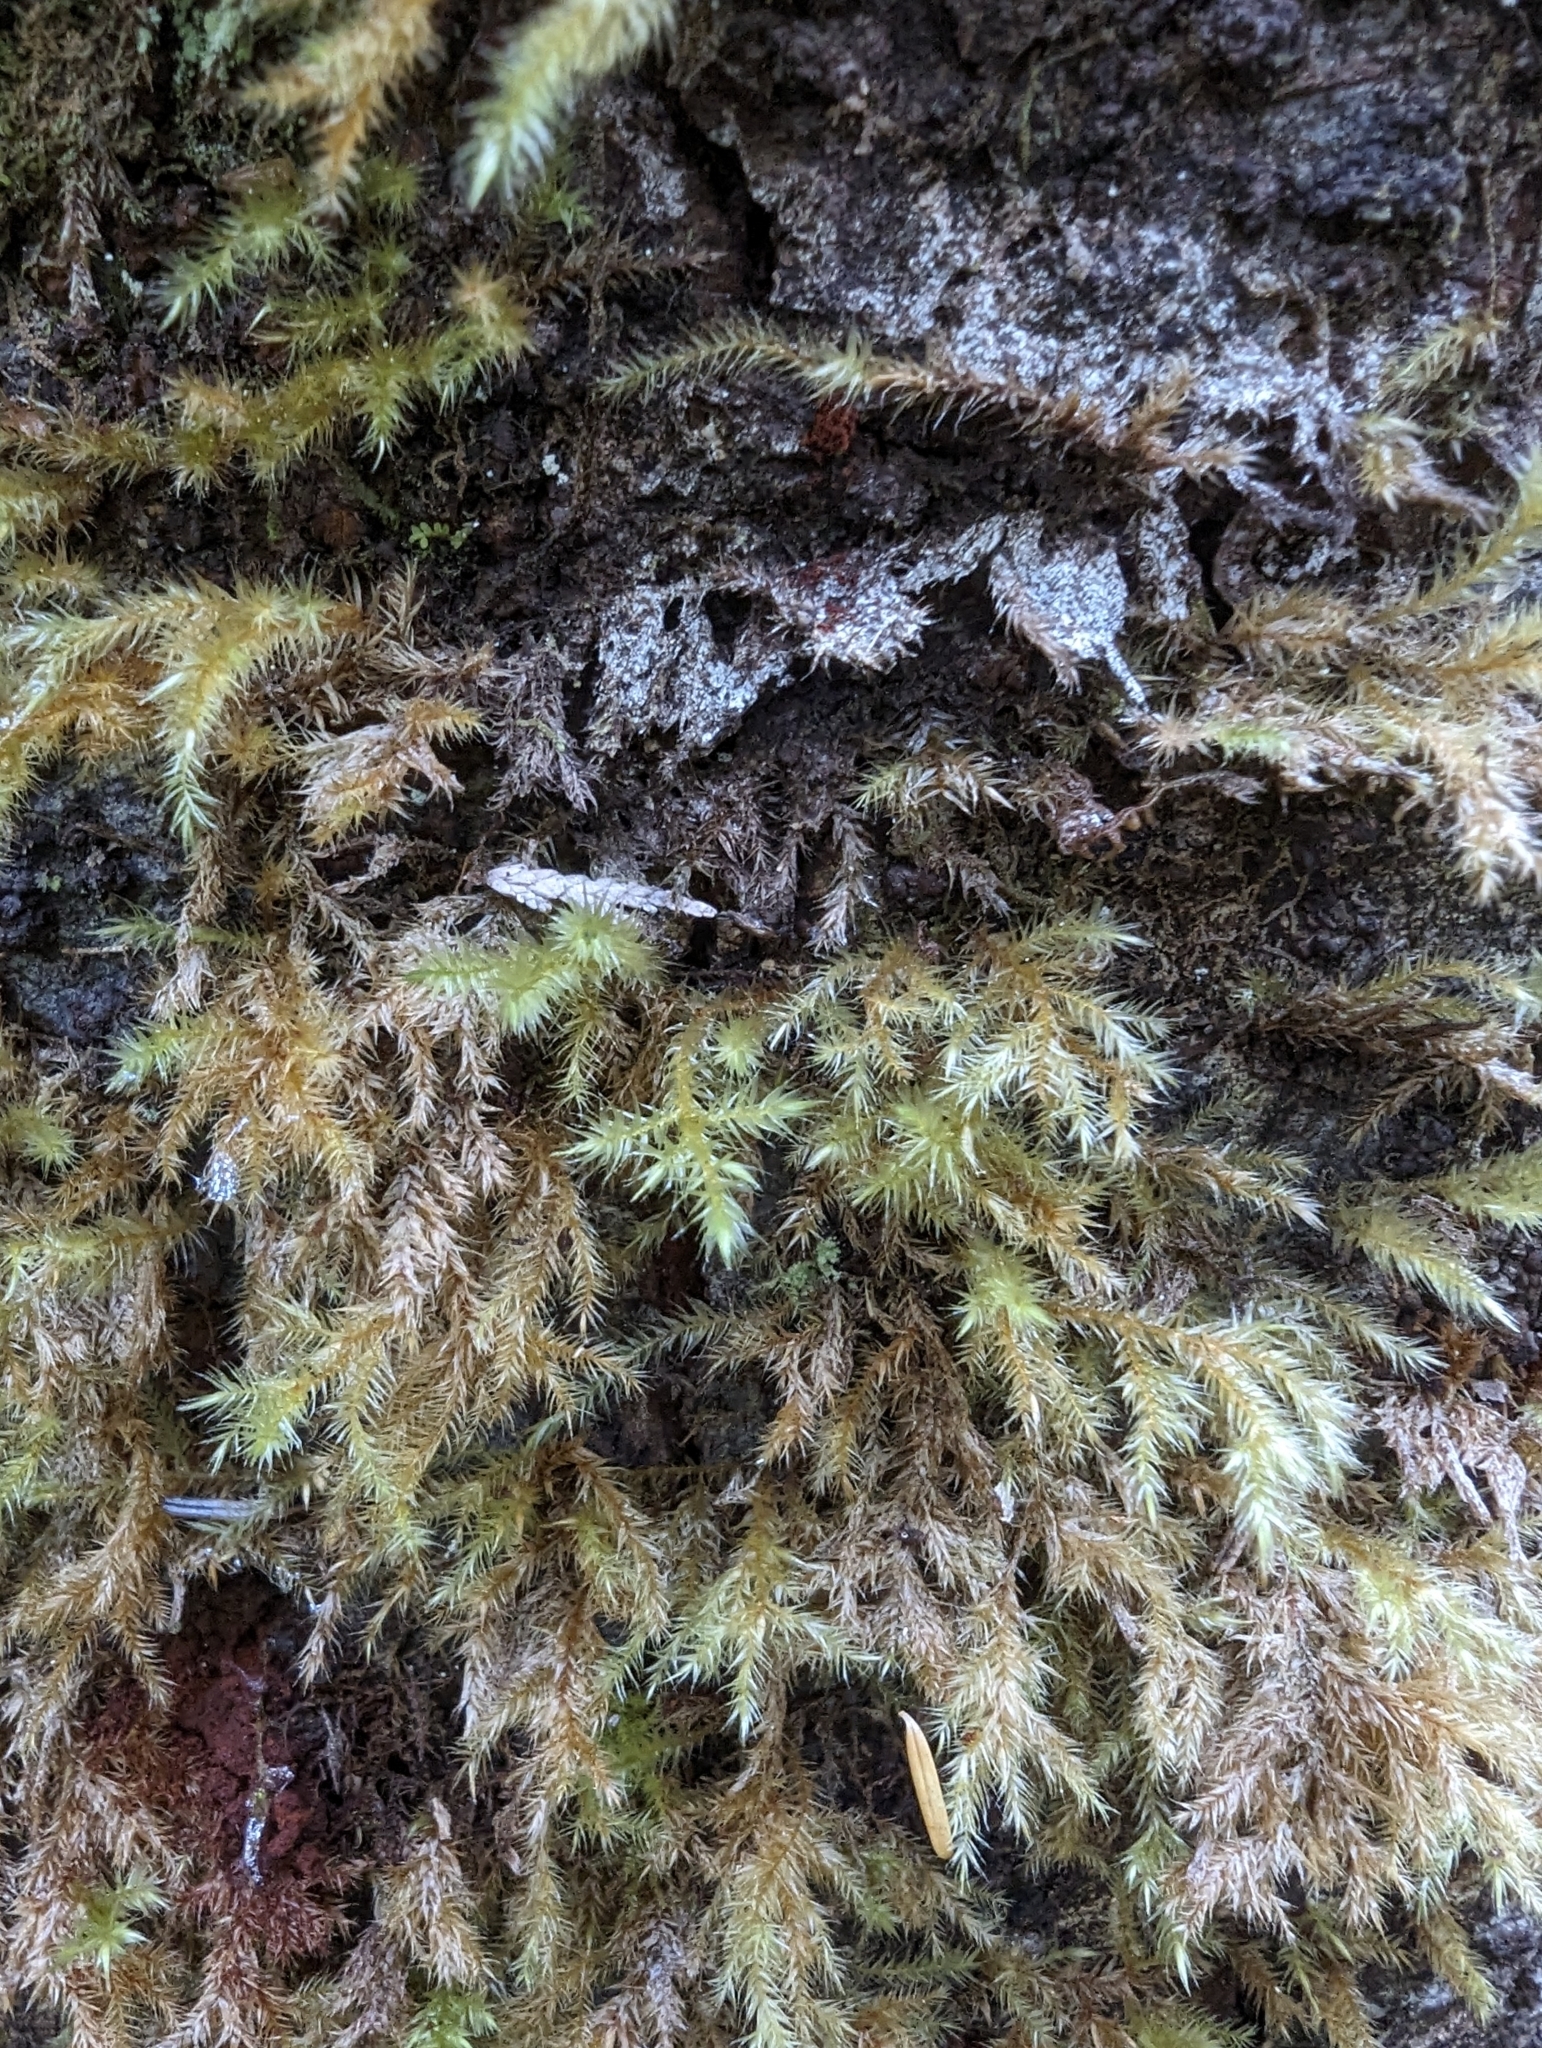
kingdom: Plantae
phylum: Bryophyta
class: Bryopsida
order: Hypnales
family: Hylocomiaceae
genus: Rhytidiadelphus
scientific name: Rhytidiadelphus loreus
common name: Lanky moss
